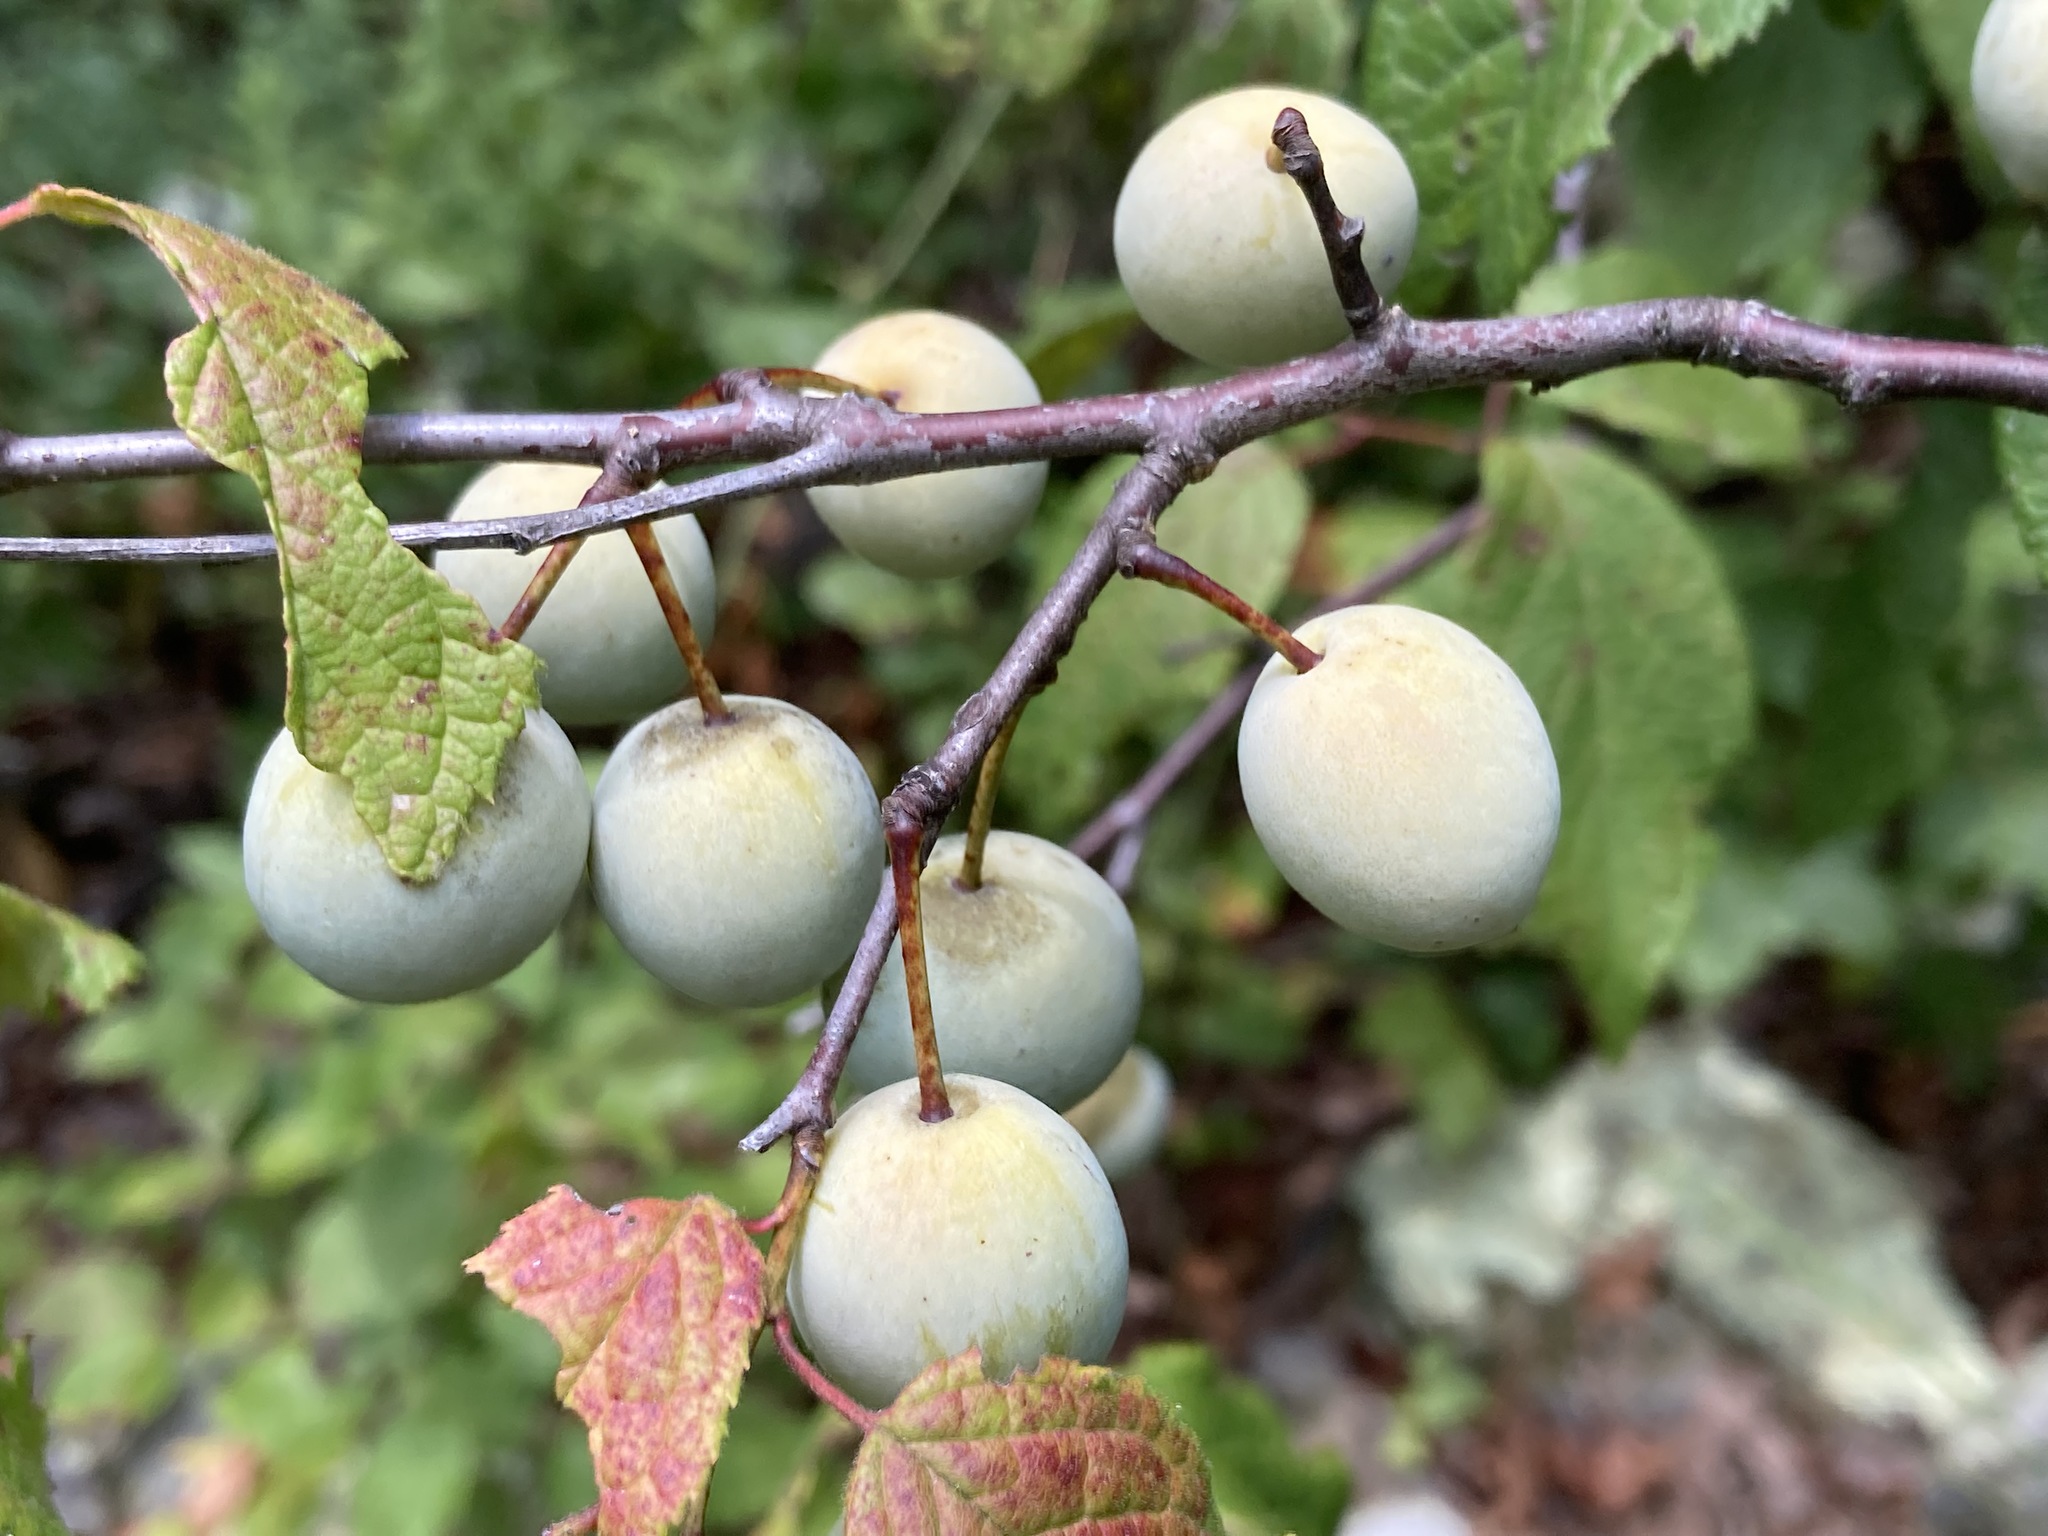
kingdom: Plantae
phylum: Tracheophyta
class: Magnoliopsida
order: Rosales
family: Rosaceae
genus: Prunus
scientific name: Prunus mexicana
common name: Mexican plum
